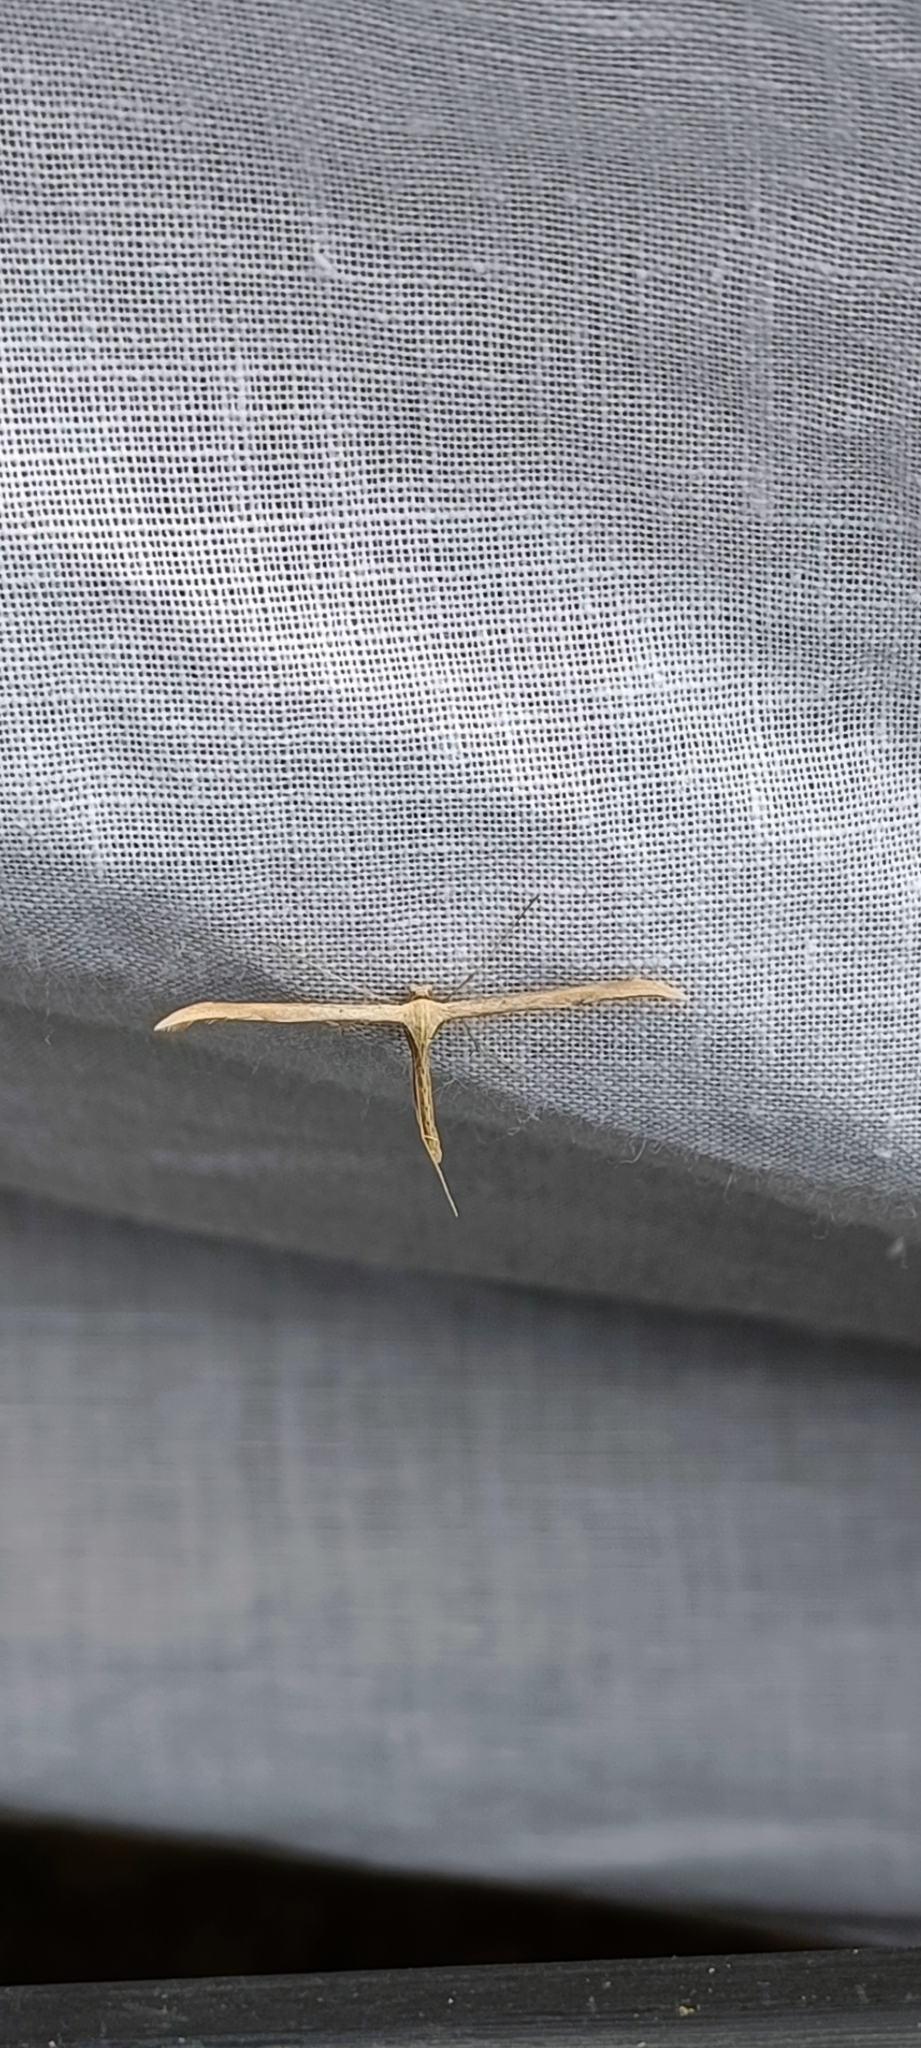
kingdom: Animalia
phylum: Arthropoda
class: Insecta
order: Lepidoptera
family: Pterophoridae
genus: Emmelina
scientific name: Emmelina monodactyla
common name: Common plume
